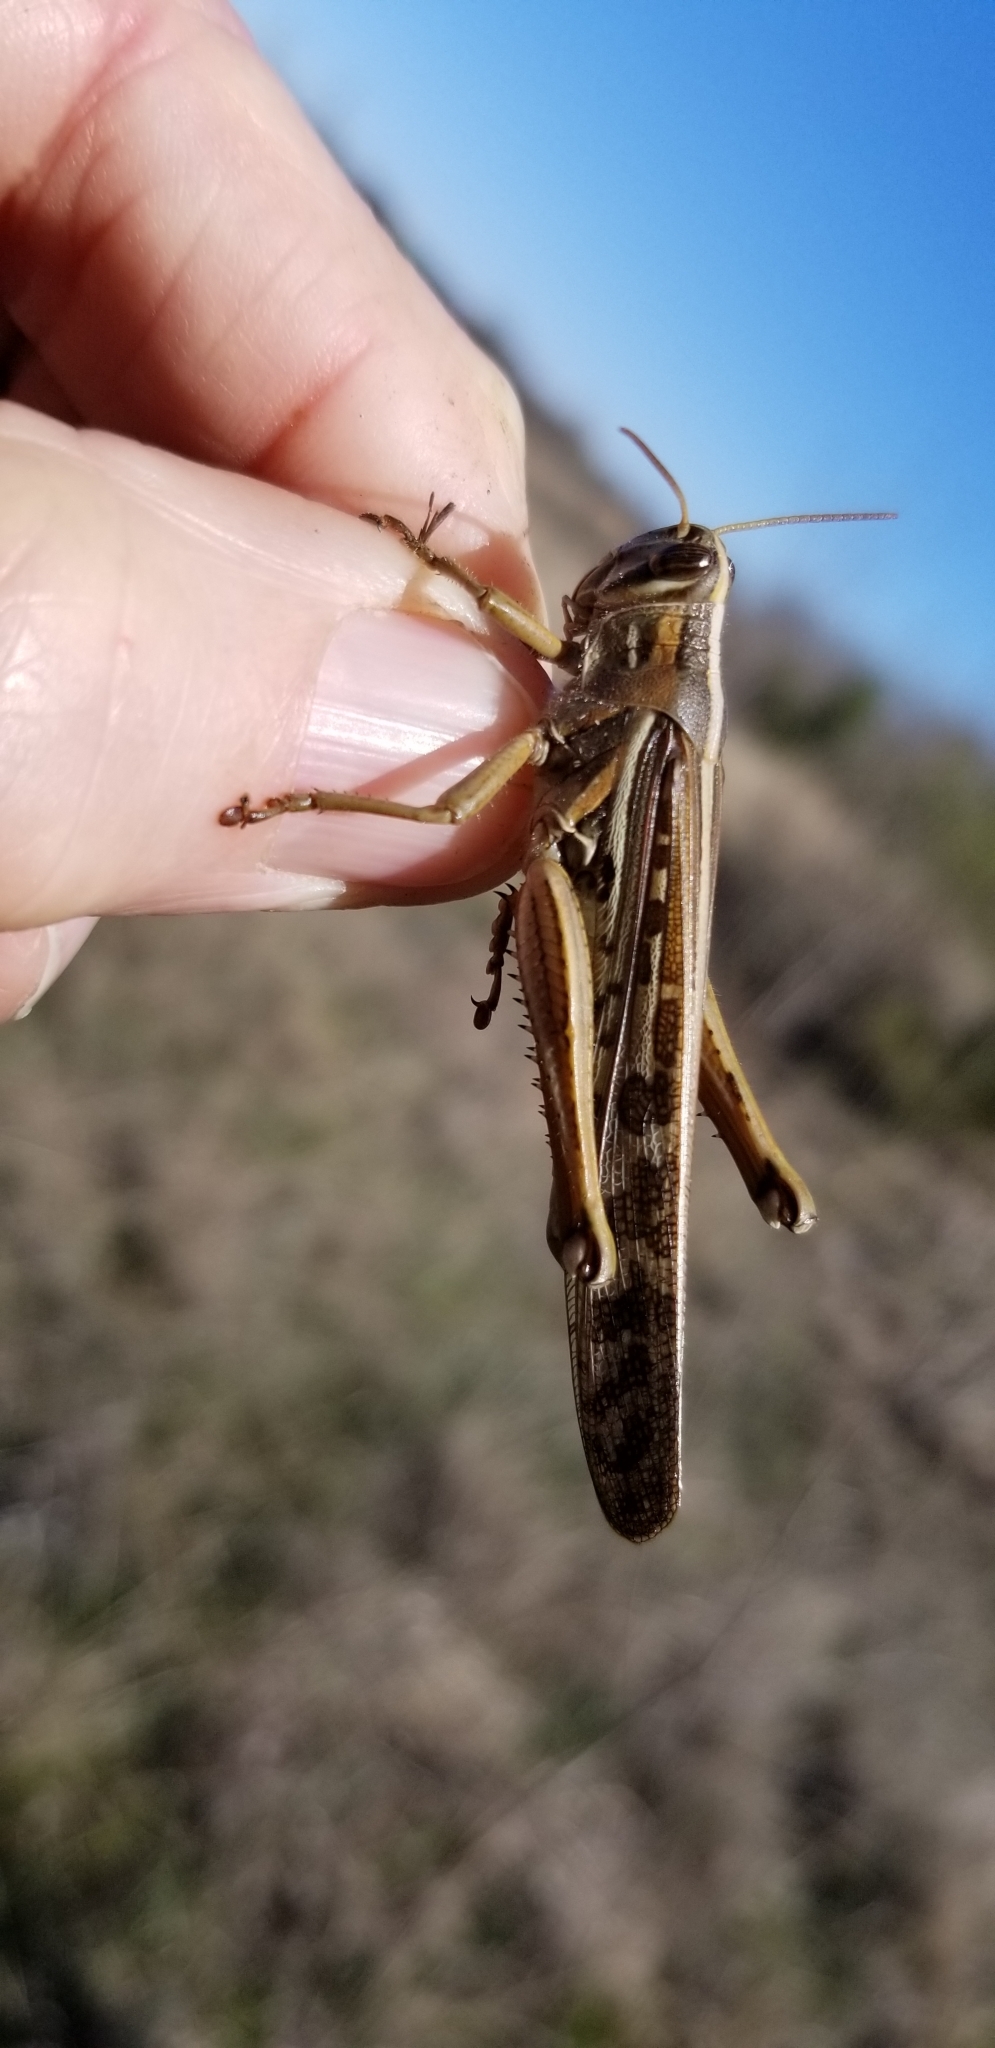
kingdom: Animalia
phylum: Arthropoda
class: Insecta
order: Orthoptera
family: Acrididae
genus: Schistocerca
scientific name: Schistocerca americana
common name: American bird locust
